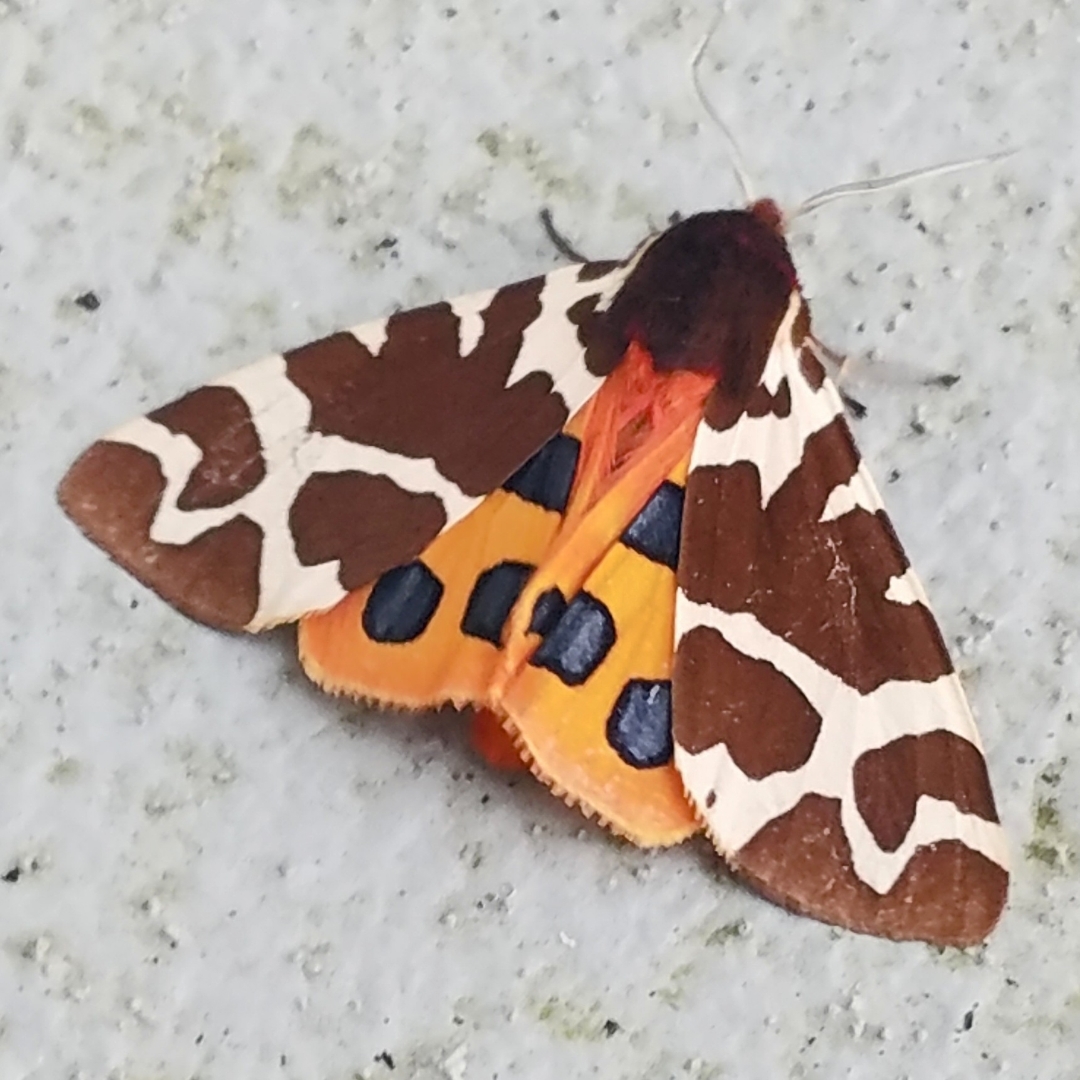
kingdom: Animalia
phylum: Arthropoda
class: Insecta
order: Lepidoptera
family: Erebidae
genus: Arctia
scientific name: Arctia caja
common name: Garden tiger
